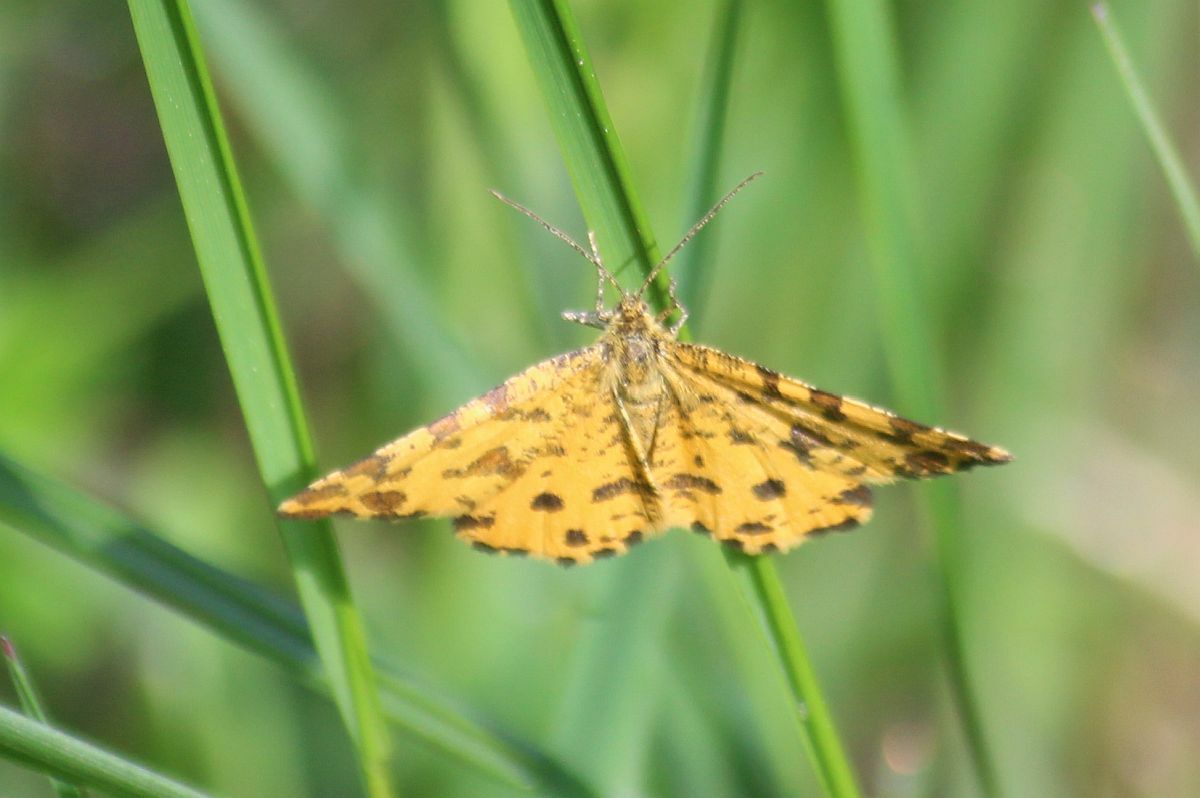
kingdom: Animalia
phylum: Arthropoda
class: Insecta
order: Lepidoptera
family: Geometridae
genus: Pseudopanthera
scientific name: Pseudopanthera macularia
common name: Speckled yellow
